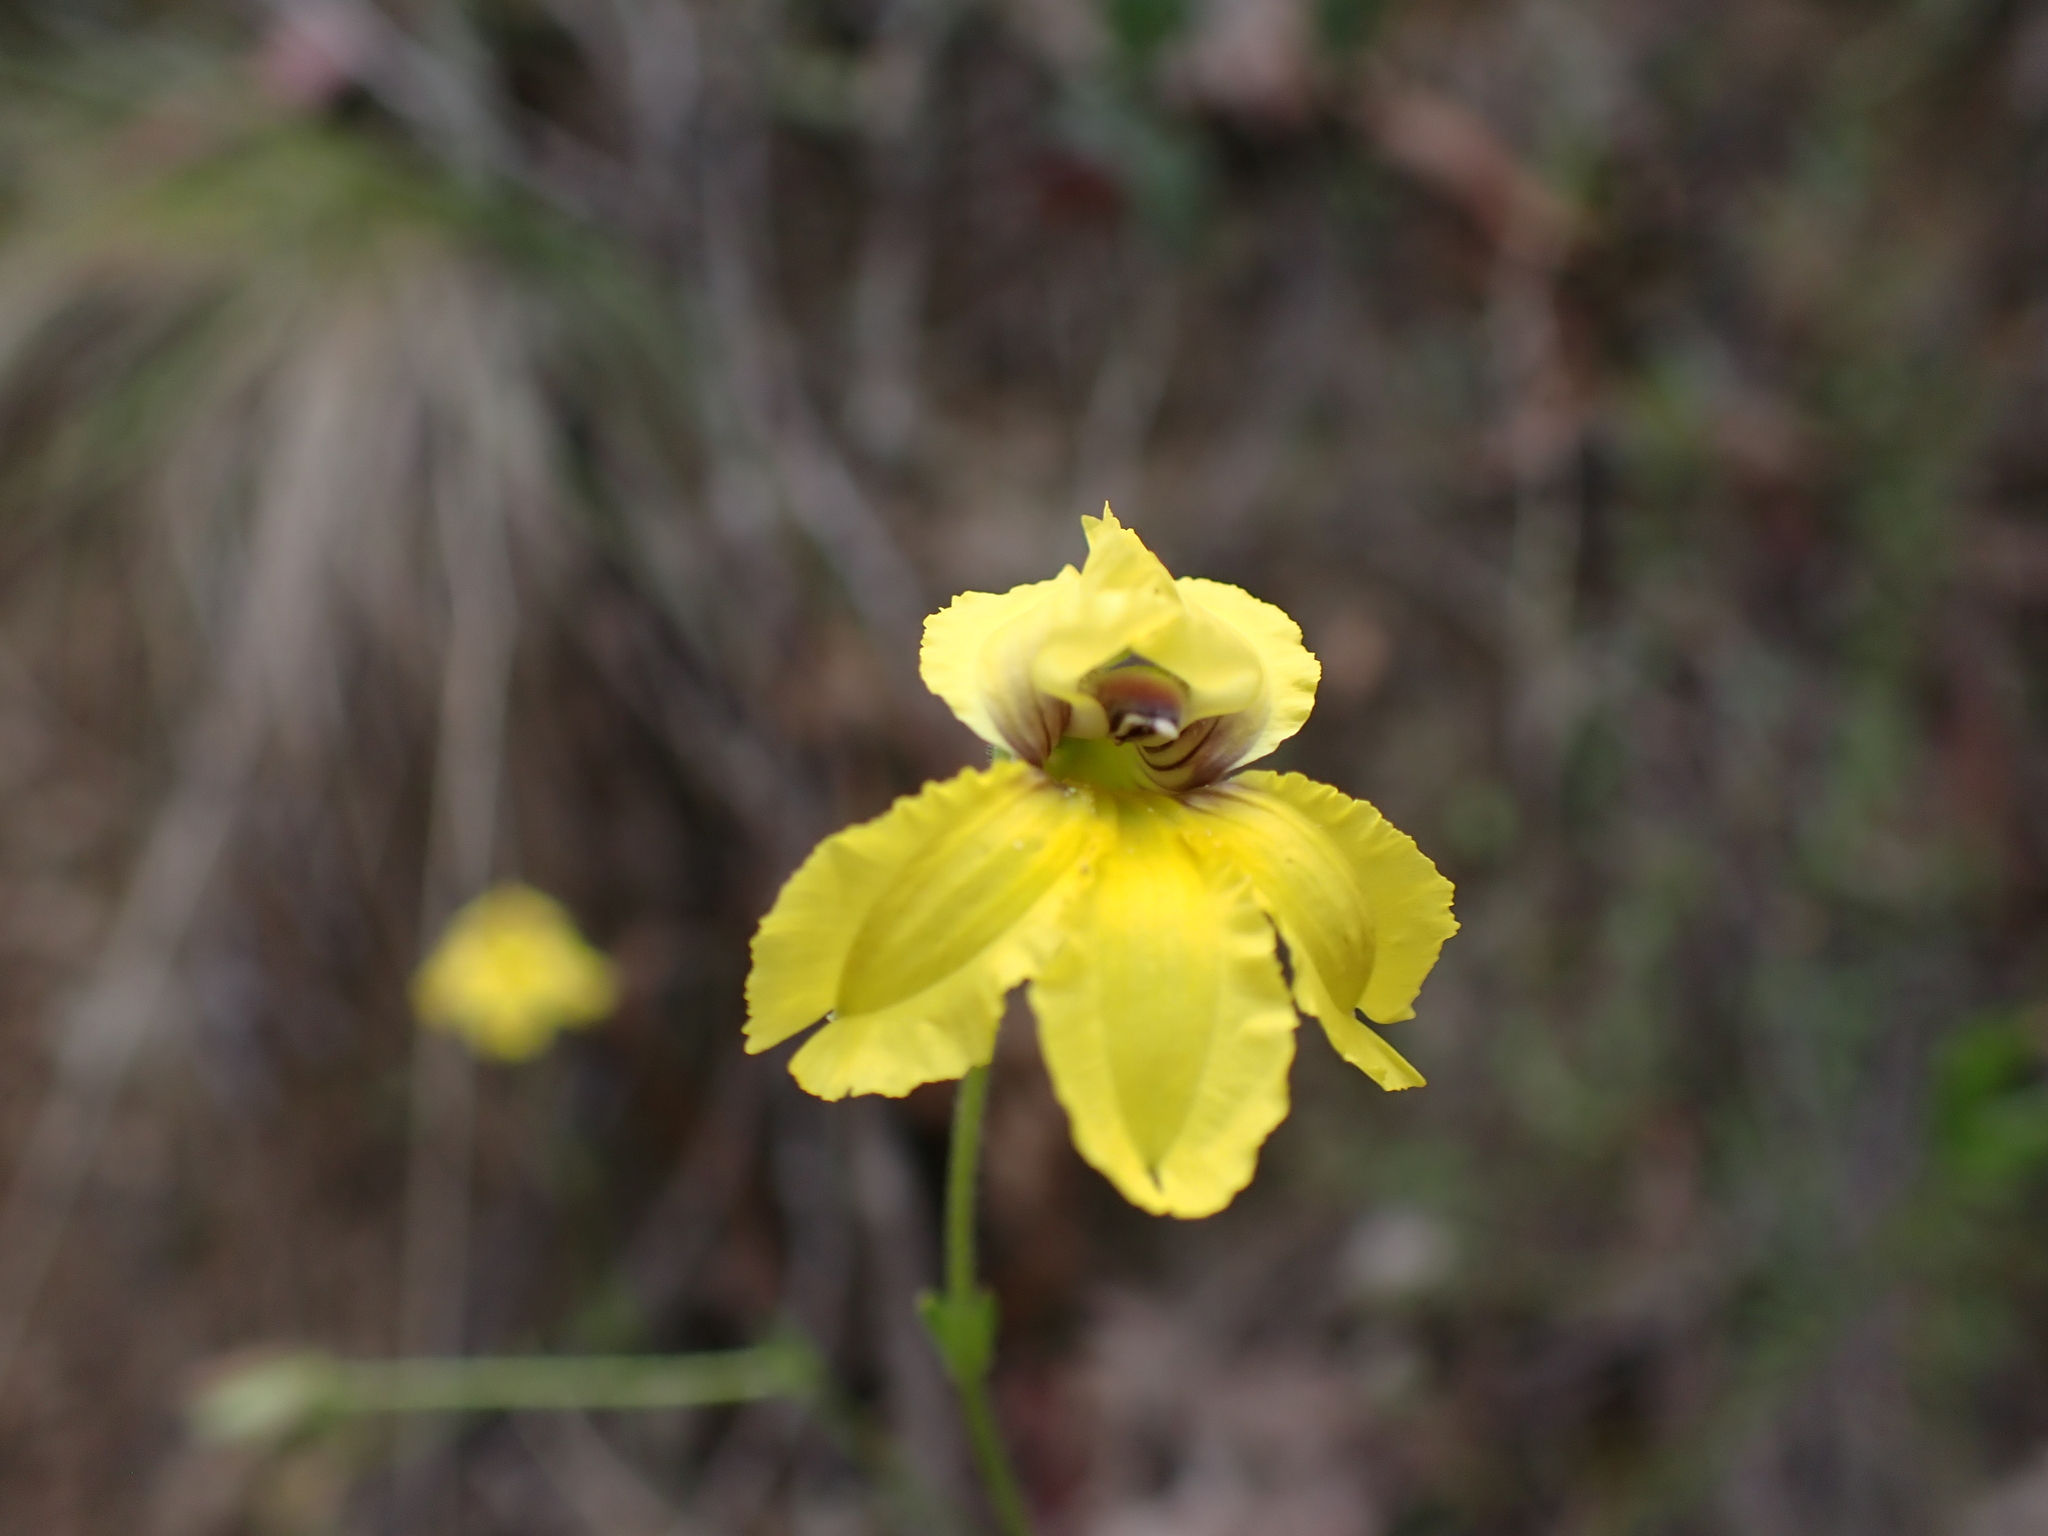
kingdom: Plantae
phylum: Tracheophyta
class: Magnoliopsida
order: Asterales
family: Goodeniaceae
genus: Goodenia
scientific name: Goodenia paradoxa
